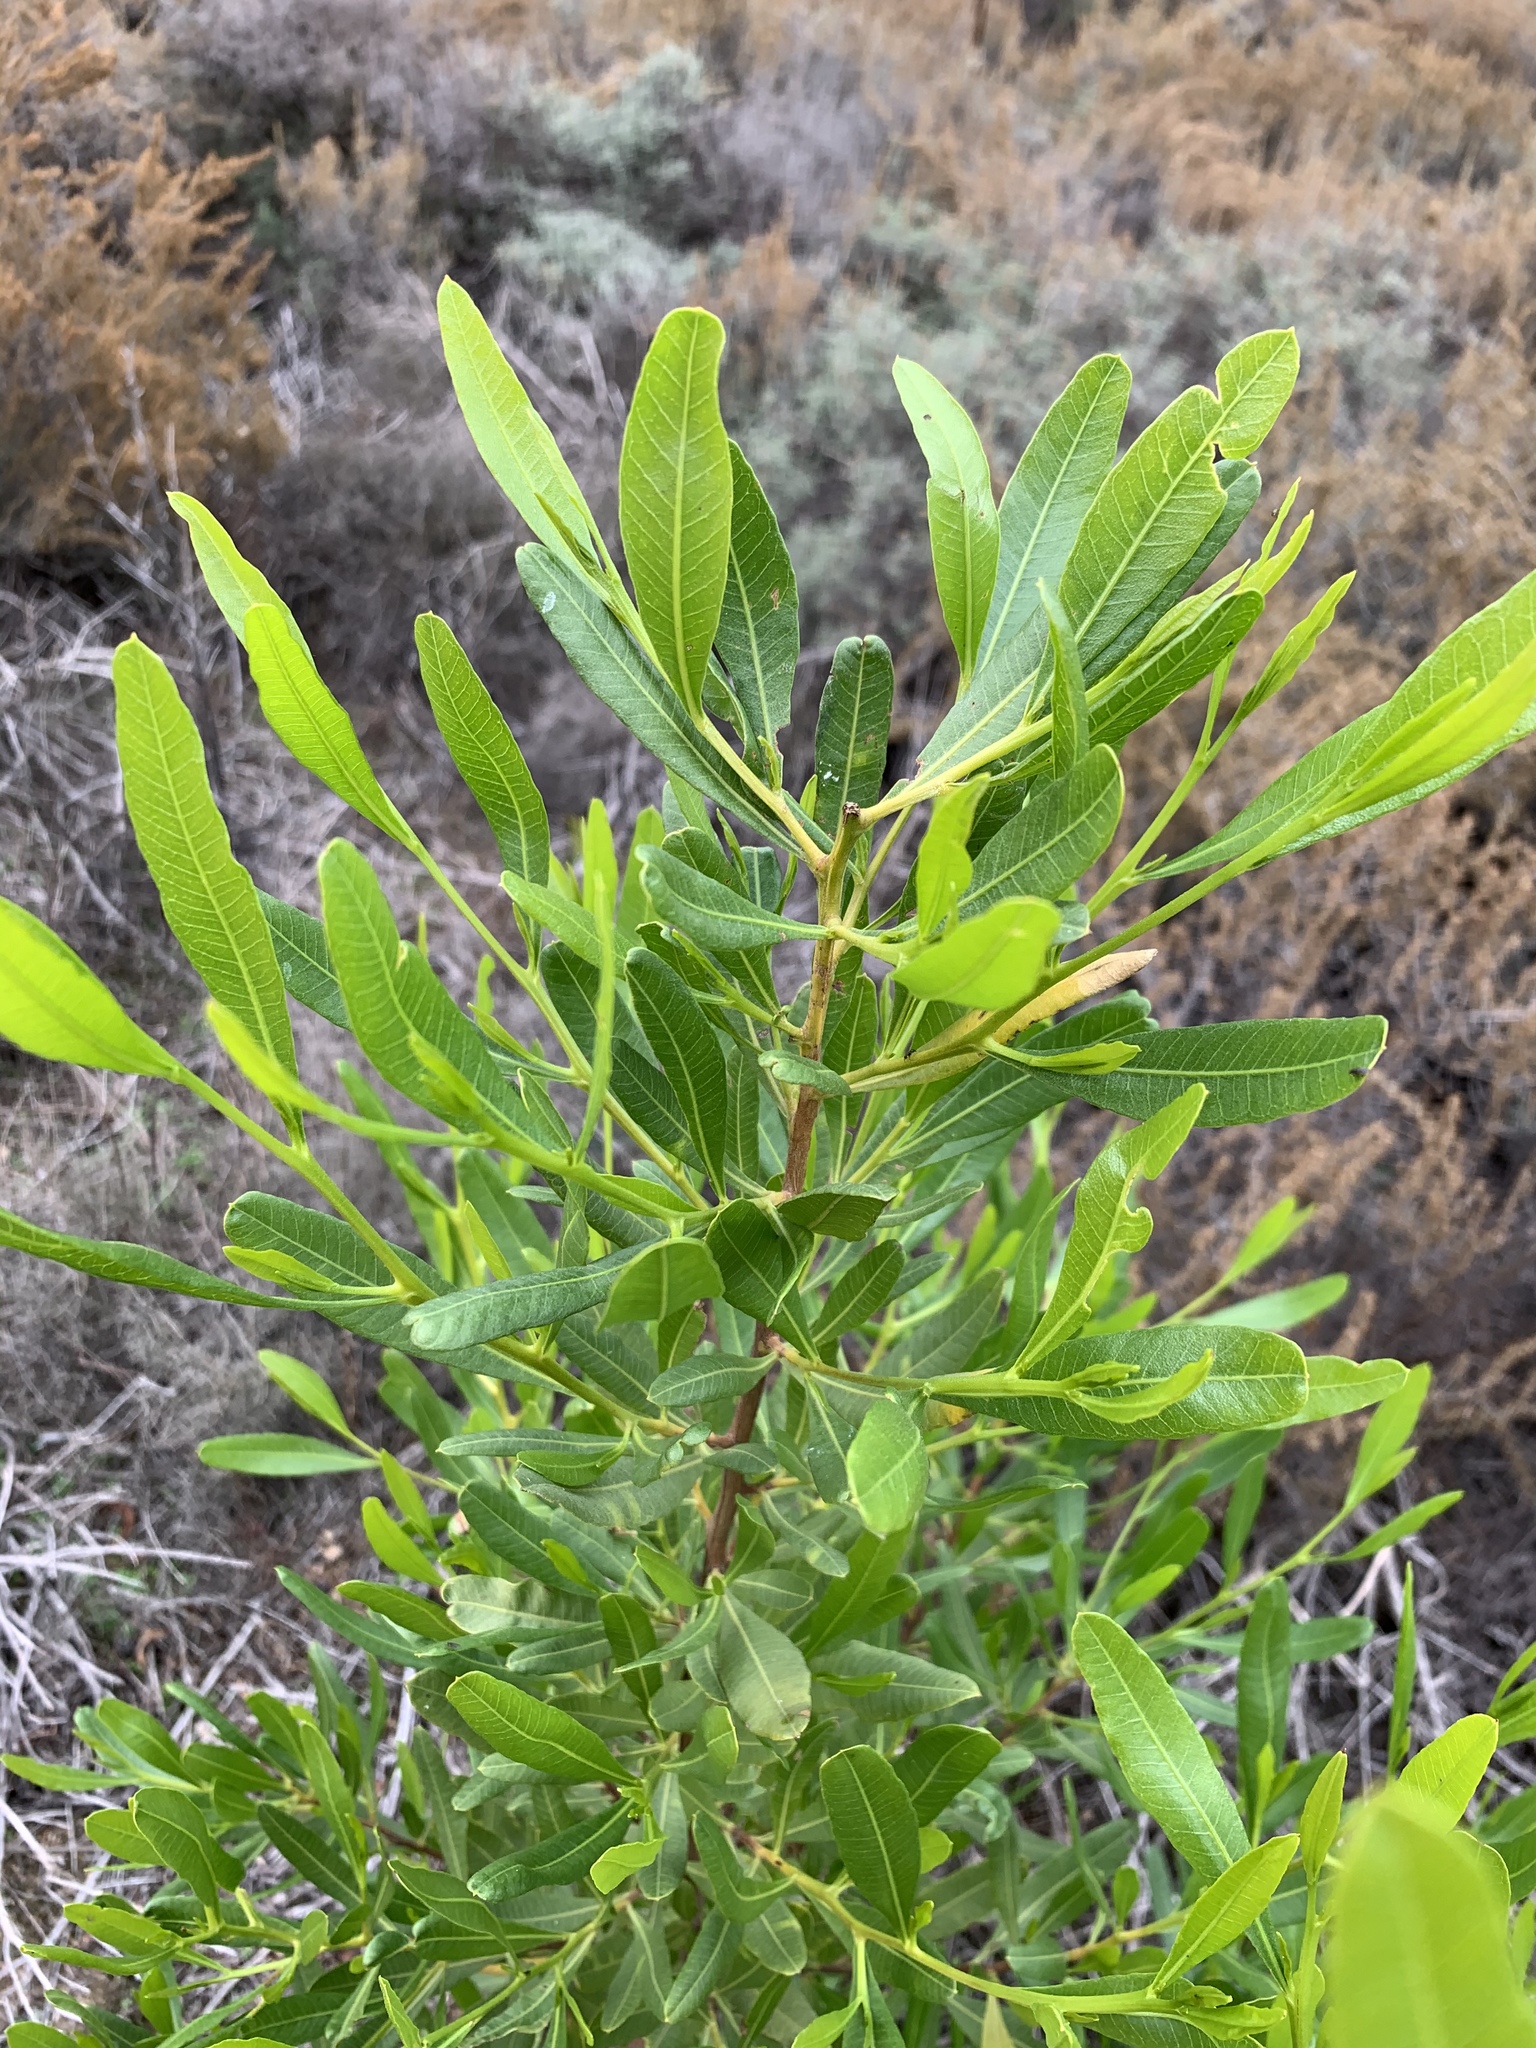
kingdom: Plantae
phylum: Tracheophyta
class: Magnoliopsida
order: Sapindales
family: Sapindaceae
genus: Dodonaea
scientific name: Dodonaea viscosa
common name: Hopbush
